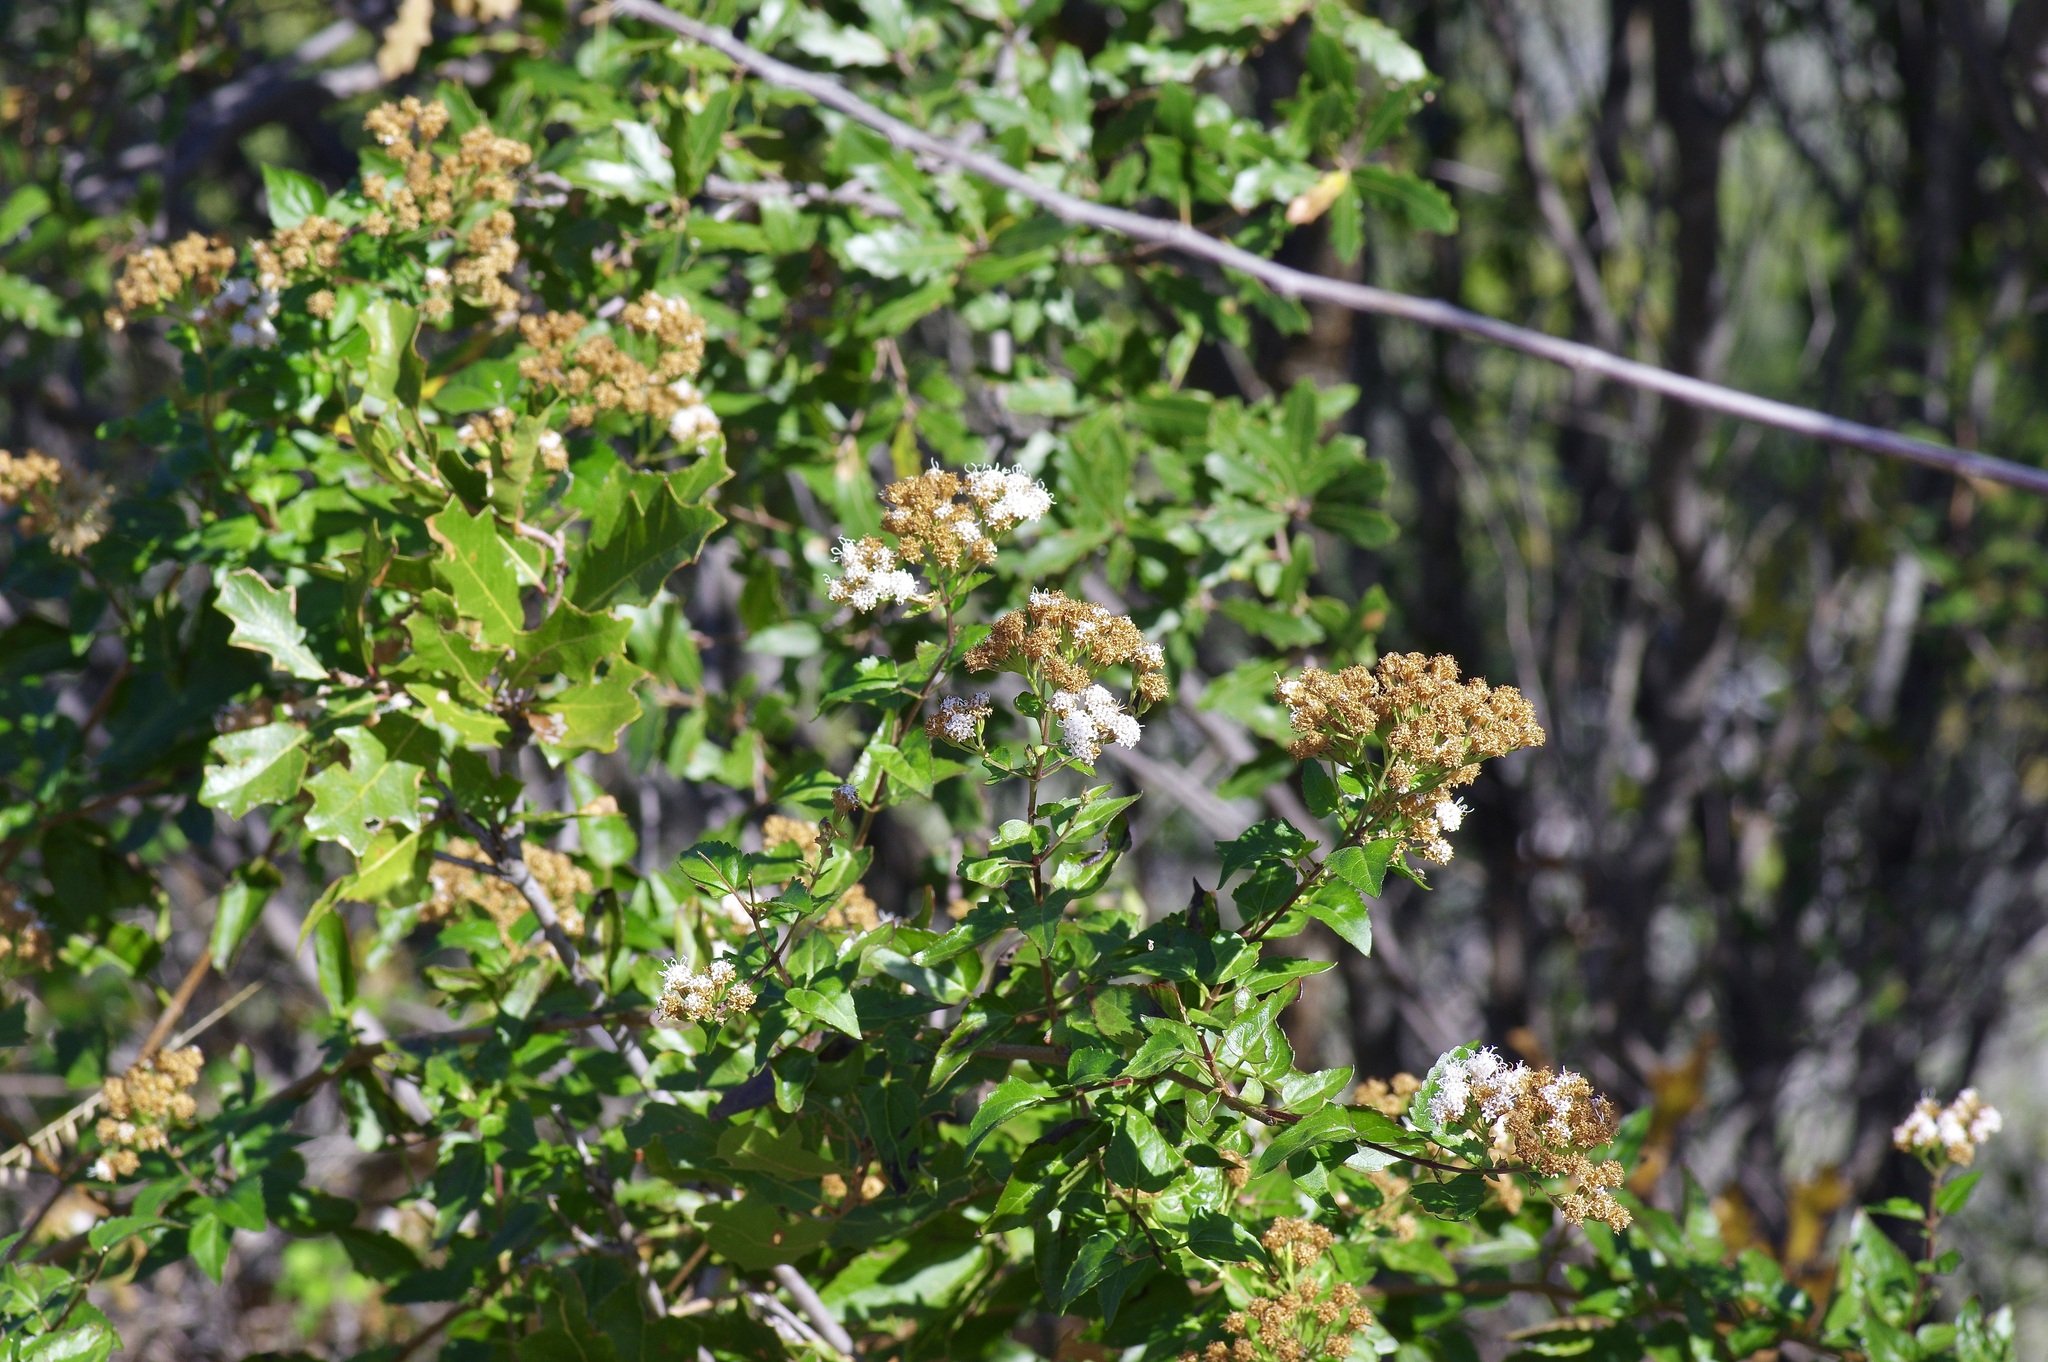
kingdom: Plantae
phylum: Tracheophyta
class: Magnoliopsida
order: Asterales
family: Asteraceae
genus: Ageratina
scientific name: Ageratina havanensis
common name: Havana snakeroot
